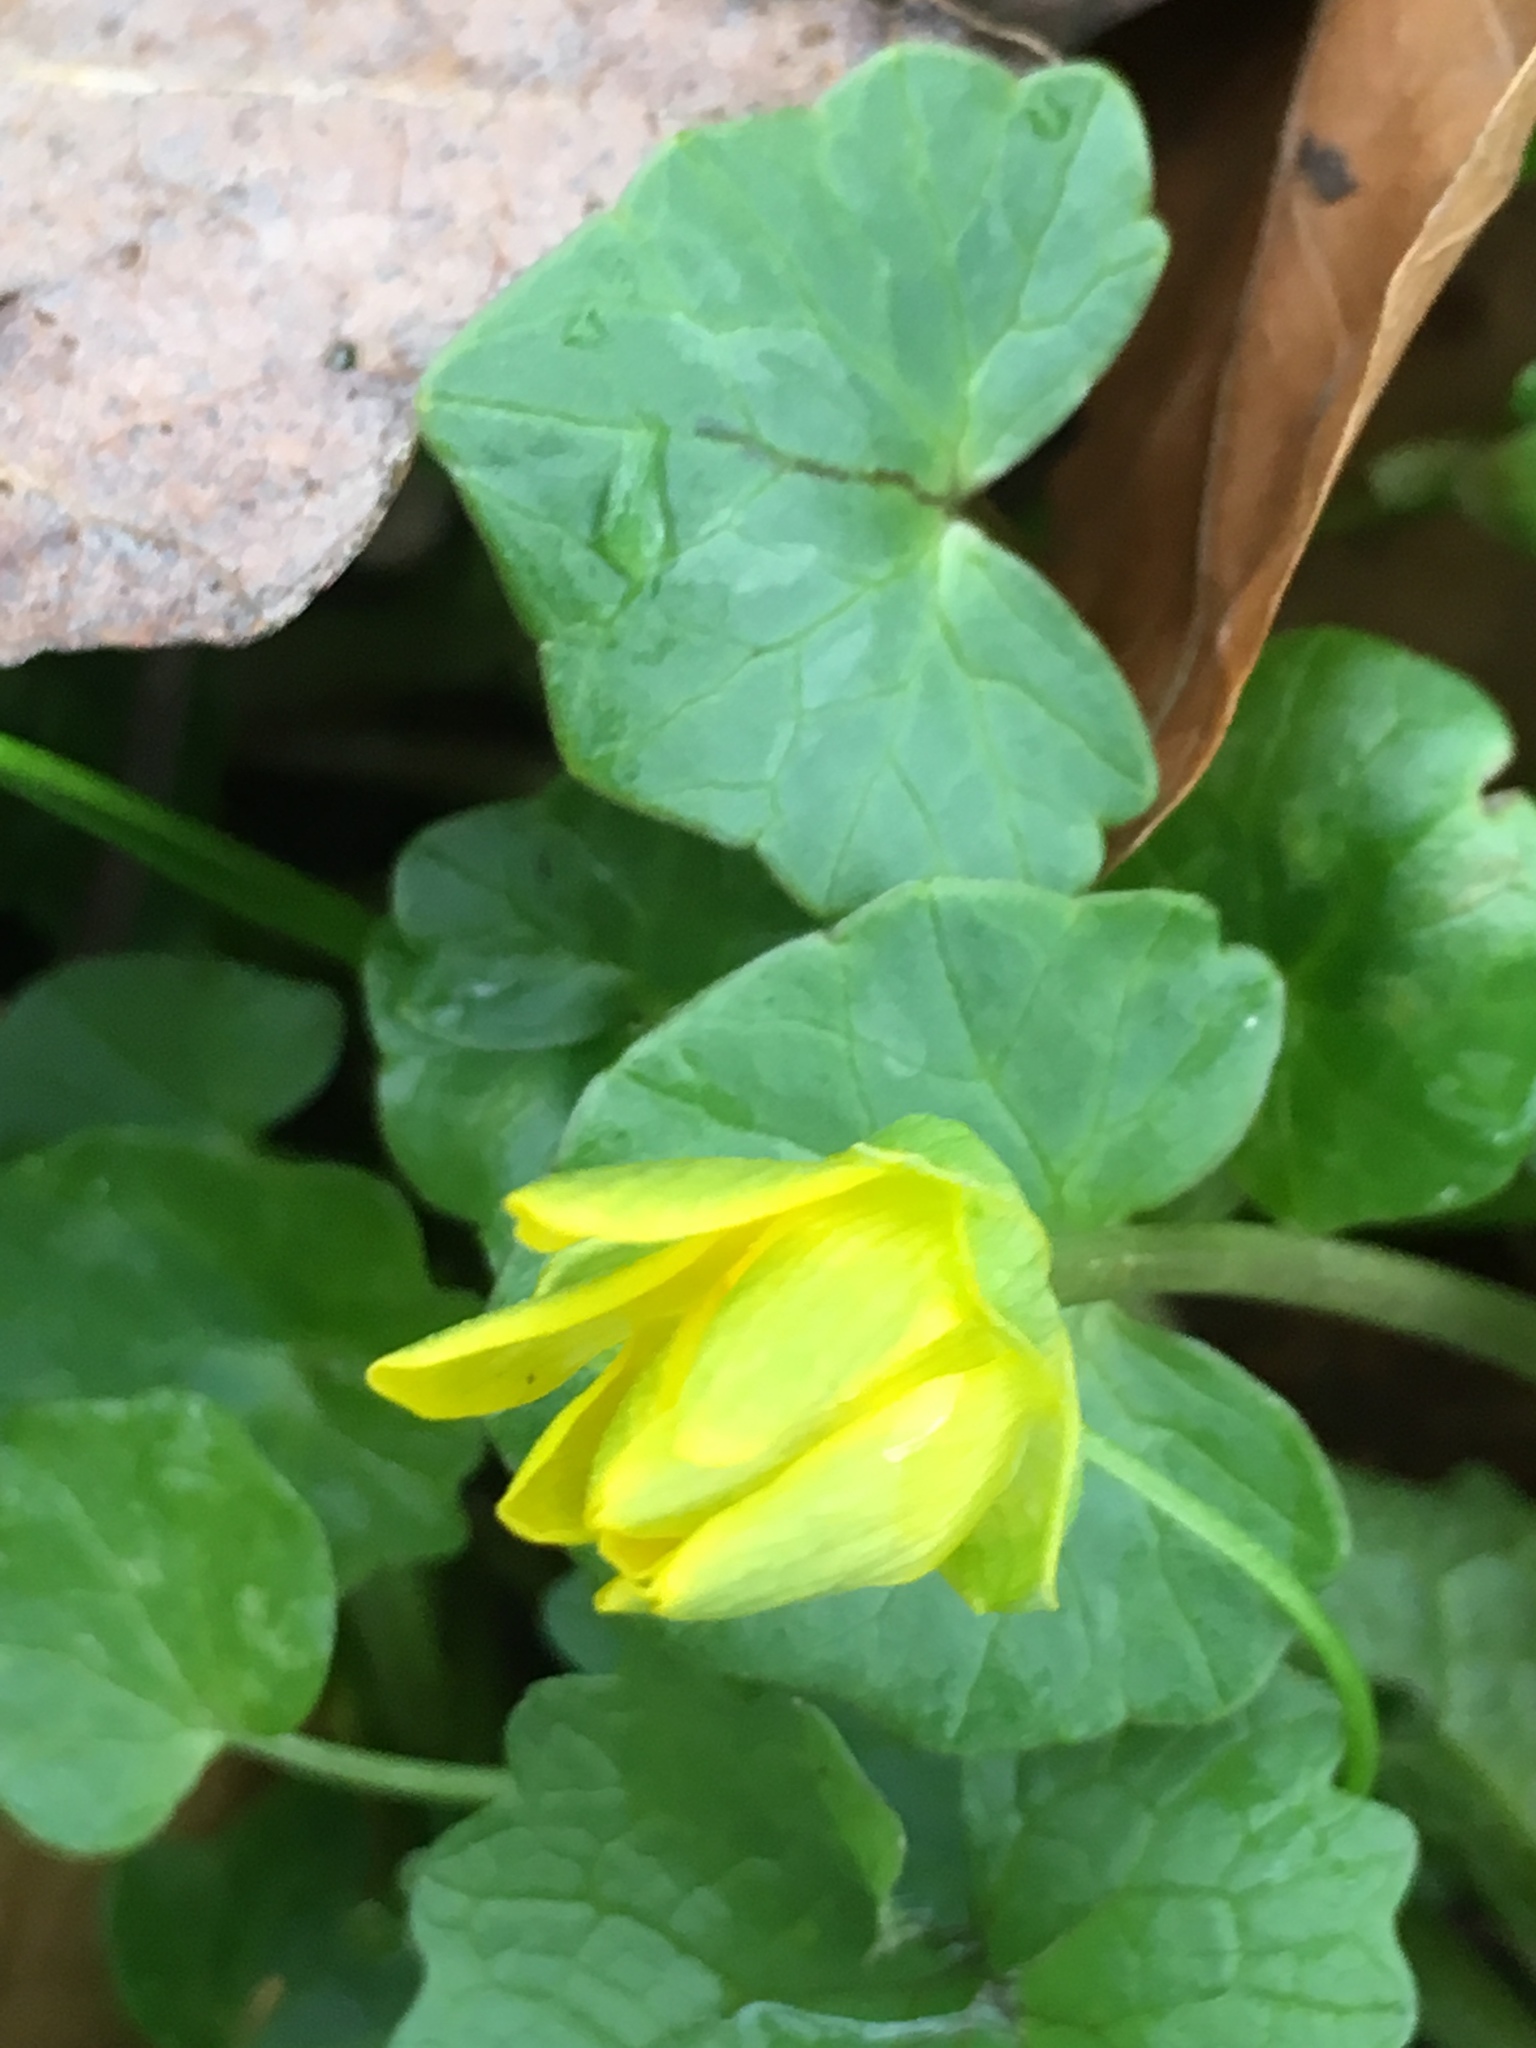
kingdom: Plantae
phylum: Tracheophyta
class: Magnoliopsida
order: Ranunculales
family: Ranunculaceae
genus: Ficaria
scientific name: Ficaria verna
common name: Lesser celandine
